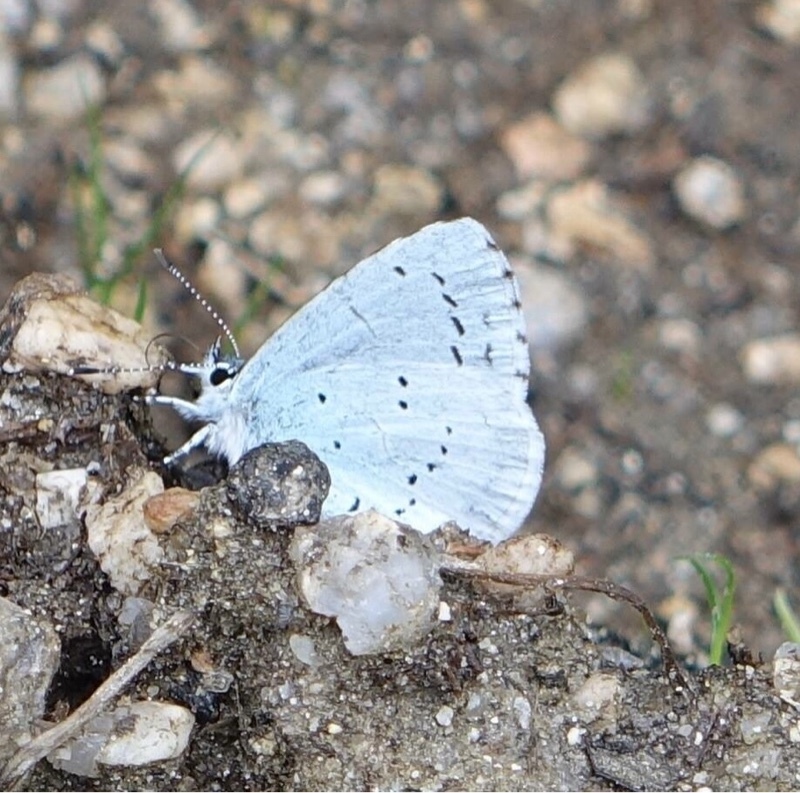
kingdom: Animalia
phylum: Arthropoda
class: Insecta
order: Lepidoptera
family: Lycaenidae
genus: Celastrina
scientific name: Celastrina argiolus
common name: Holly blue
